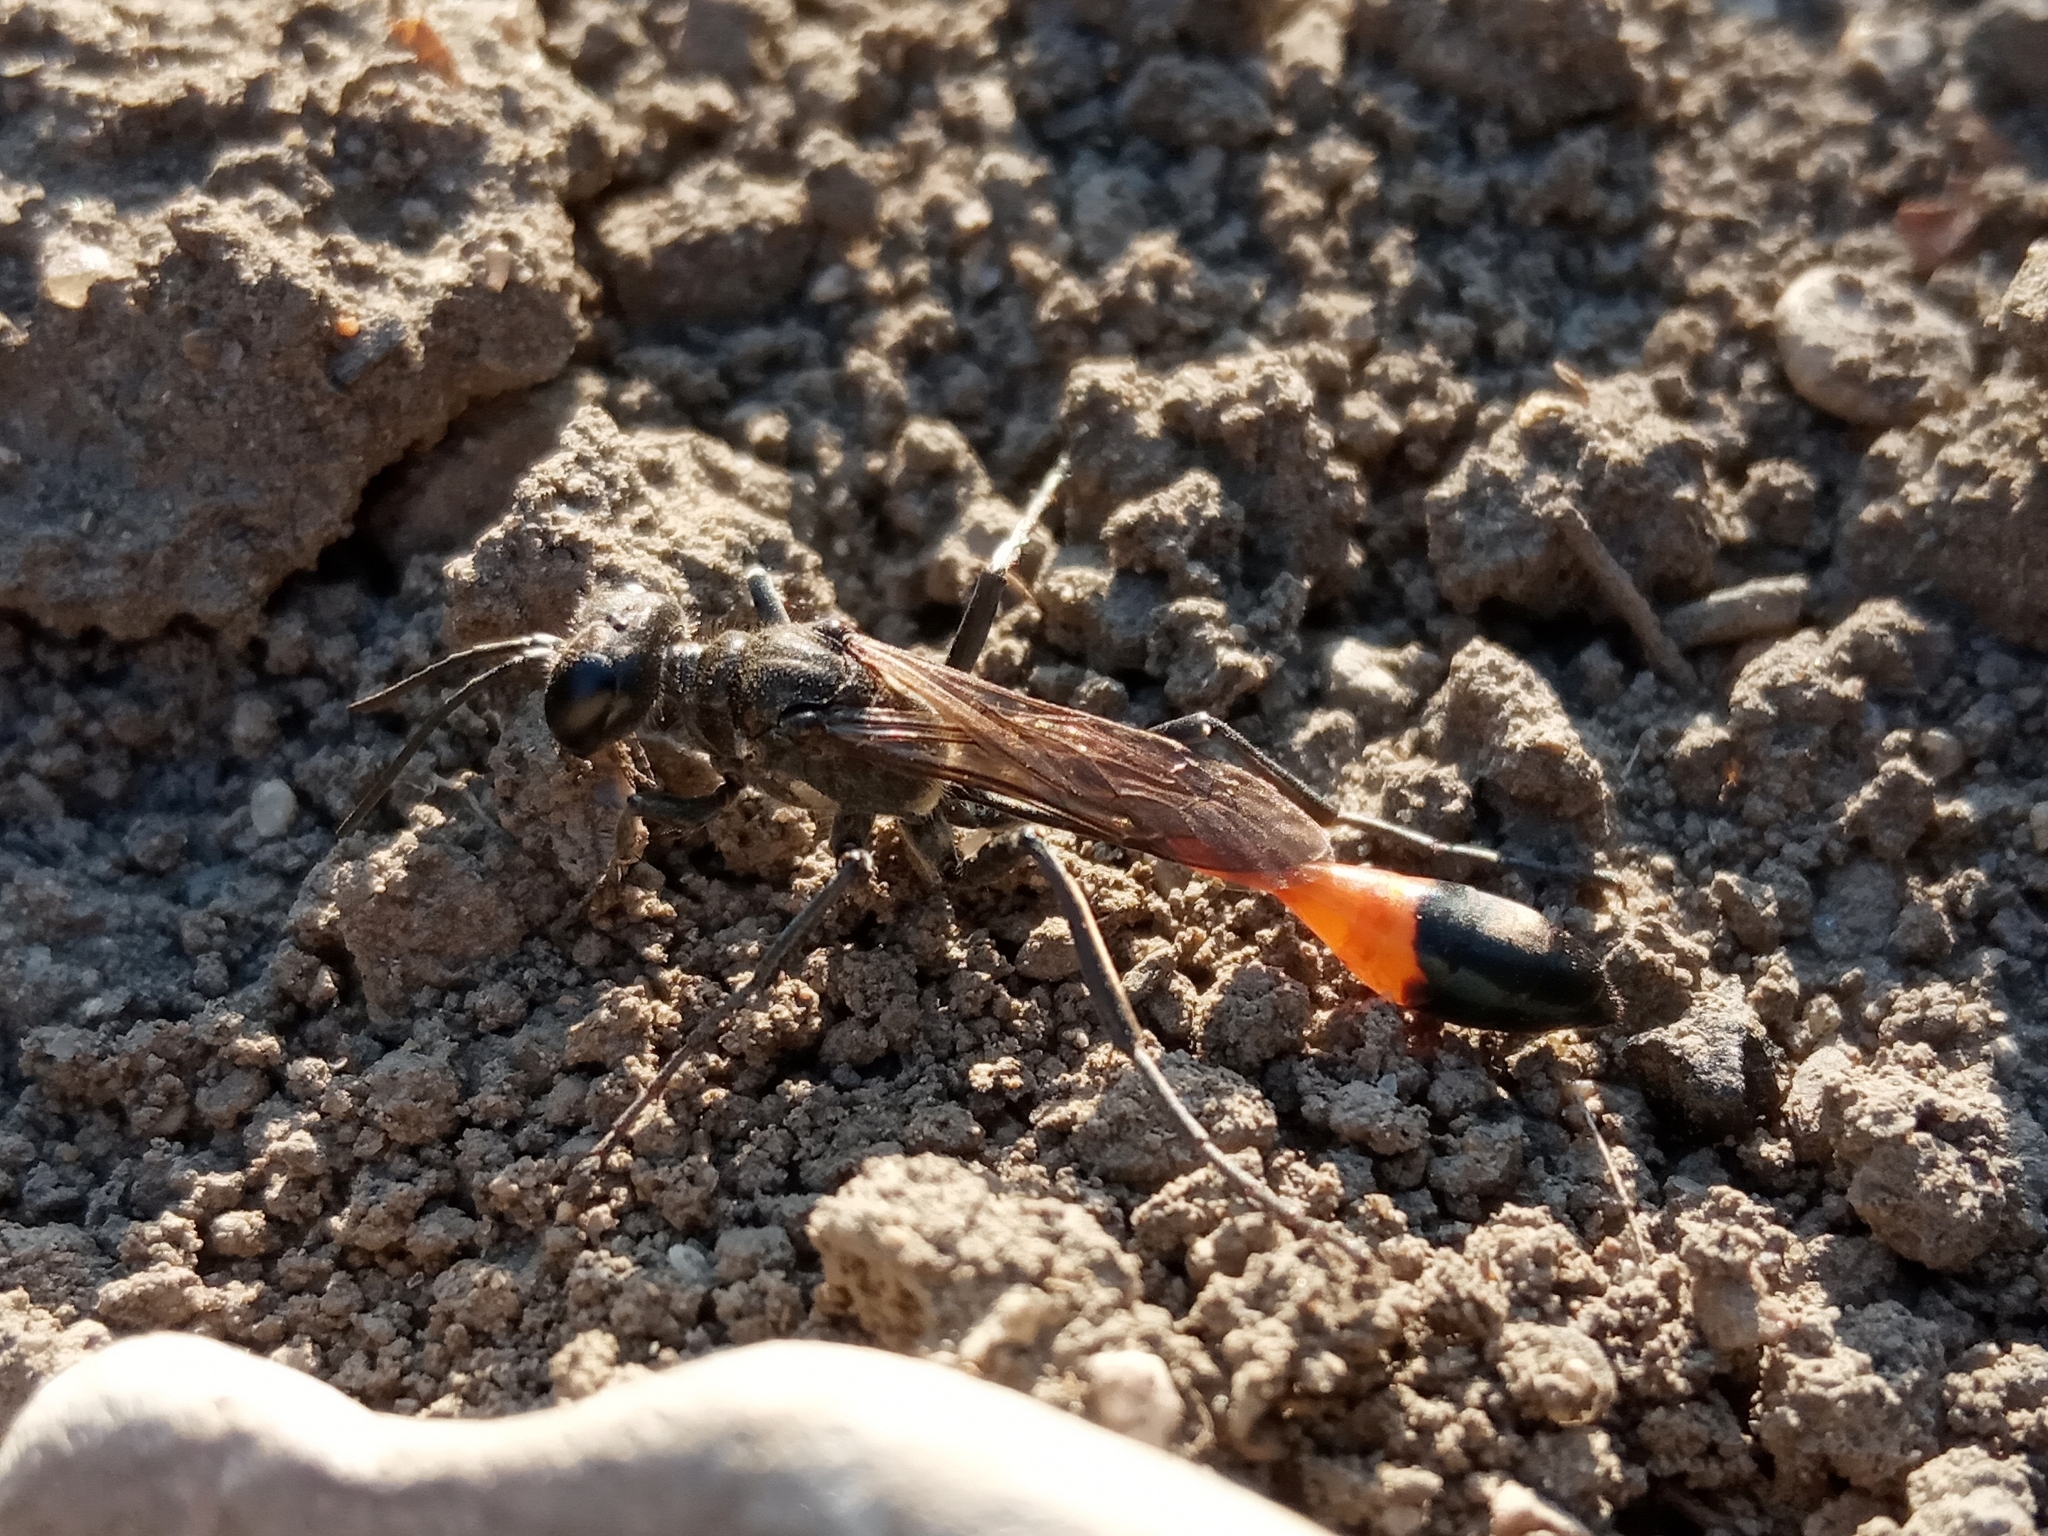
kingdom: Animalia
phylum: Arthropoda
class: Insecta
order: Hymenoptera
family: Sphecidae
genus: Ammophila
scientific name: Ammophila
